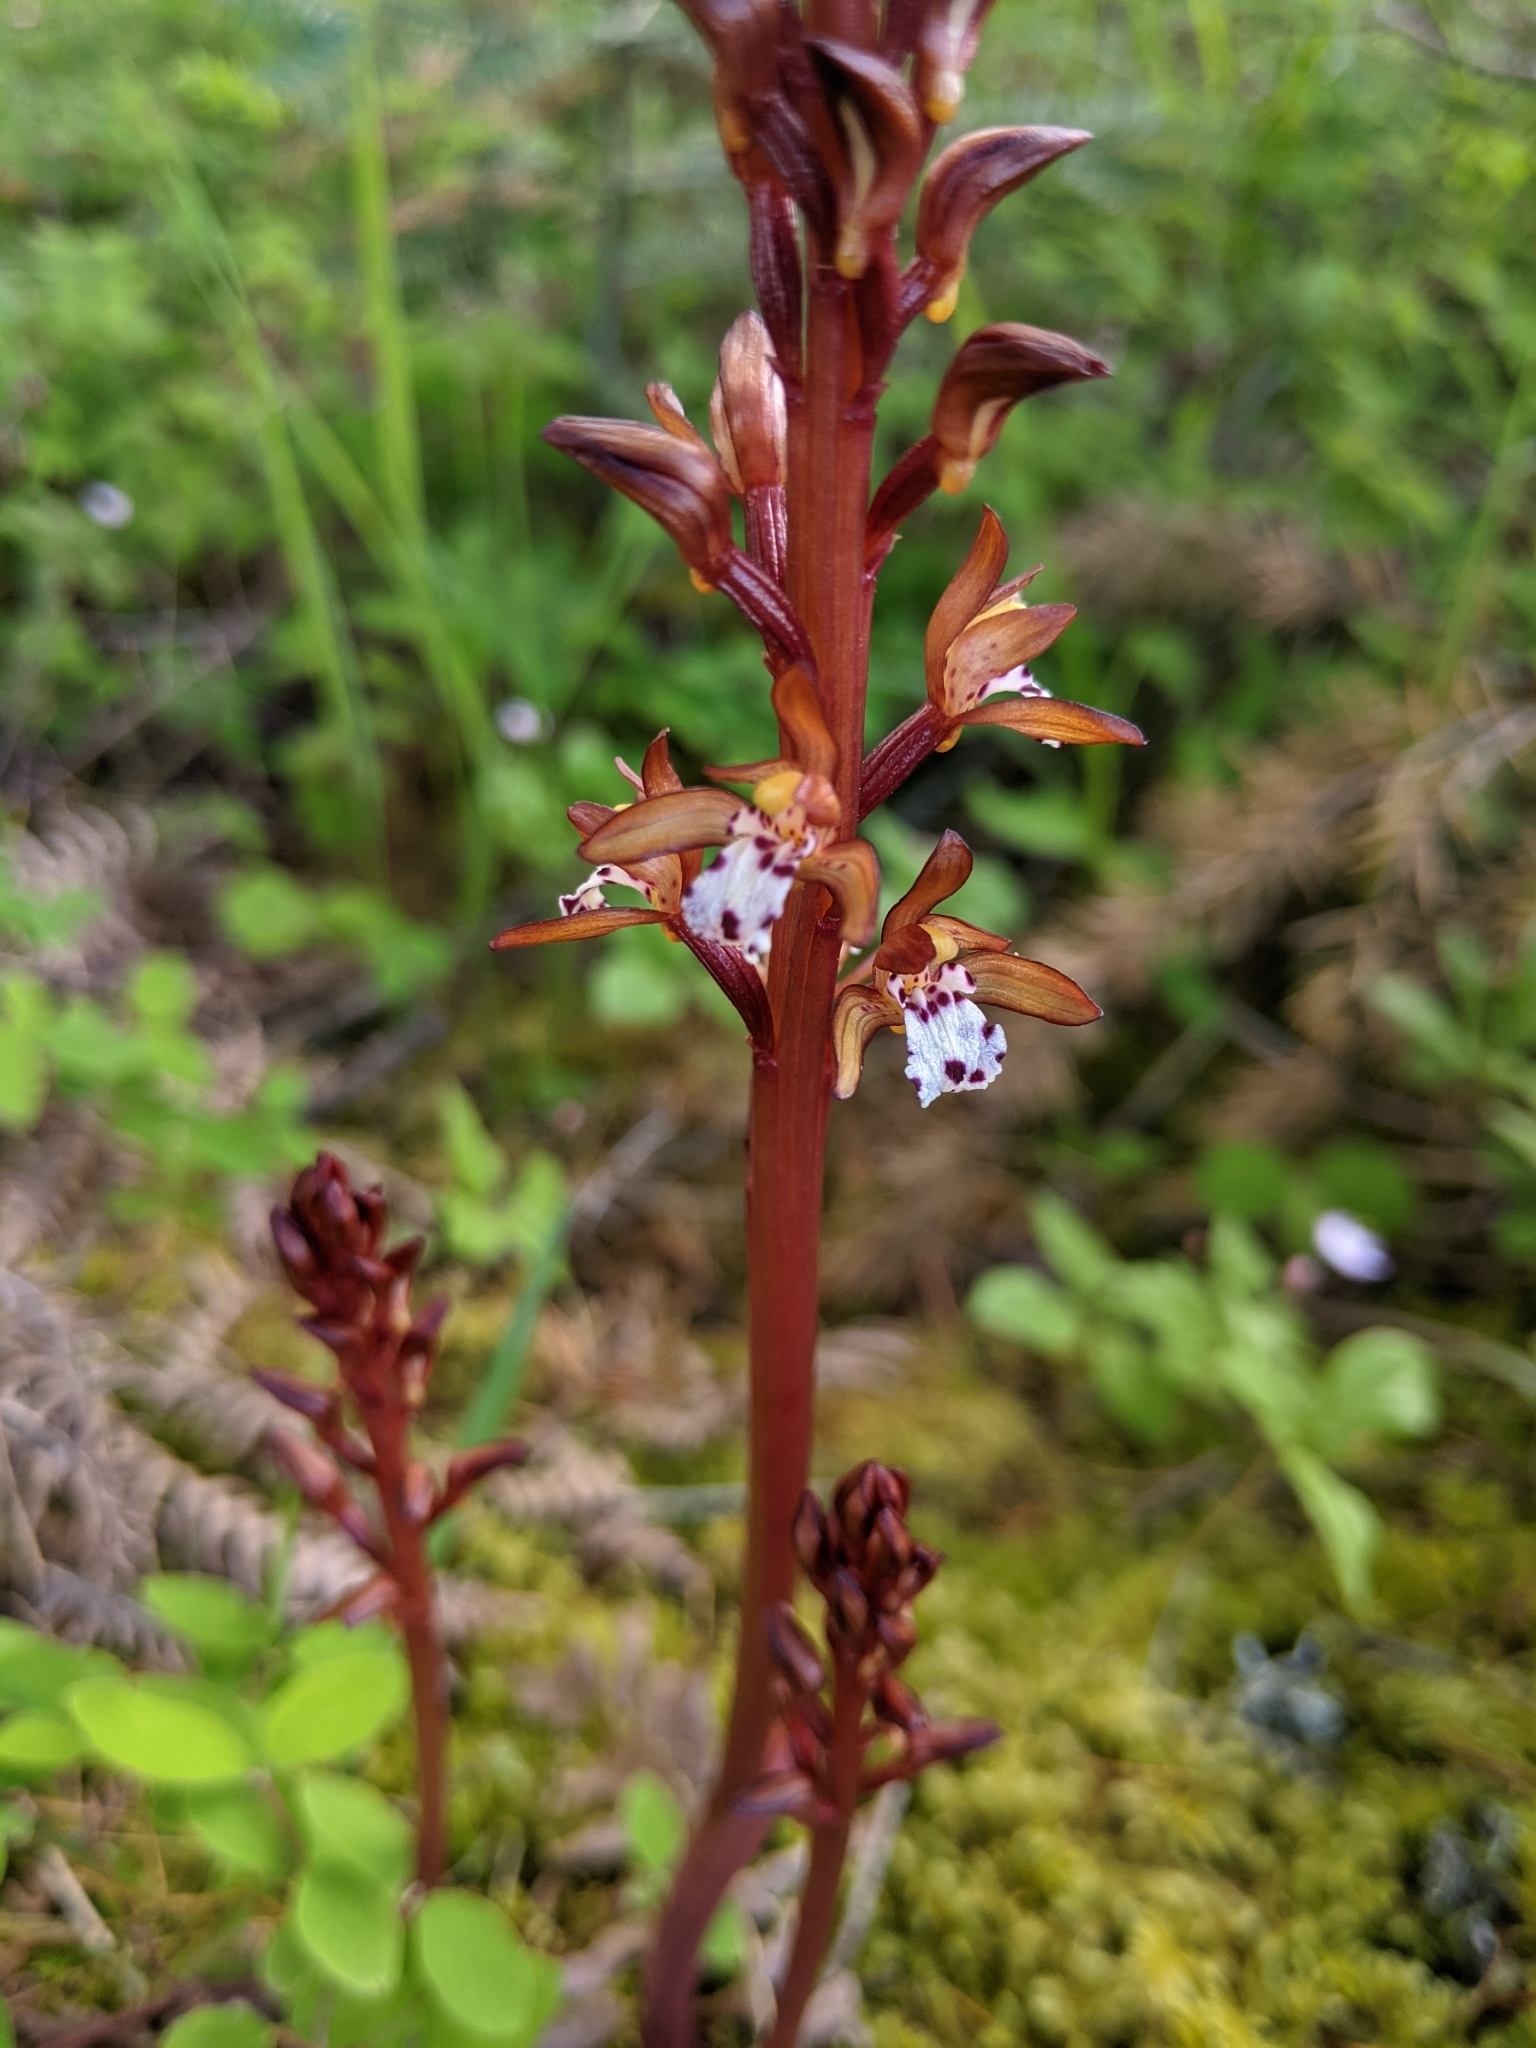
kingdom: Plantae
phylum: Tracheophyta
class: Liliopsida
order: Asparagales
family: Orchidaceae
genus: Corallorhiza
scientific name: Corallorhiza maculata
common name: Spotted coralroot
